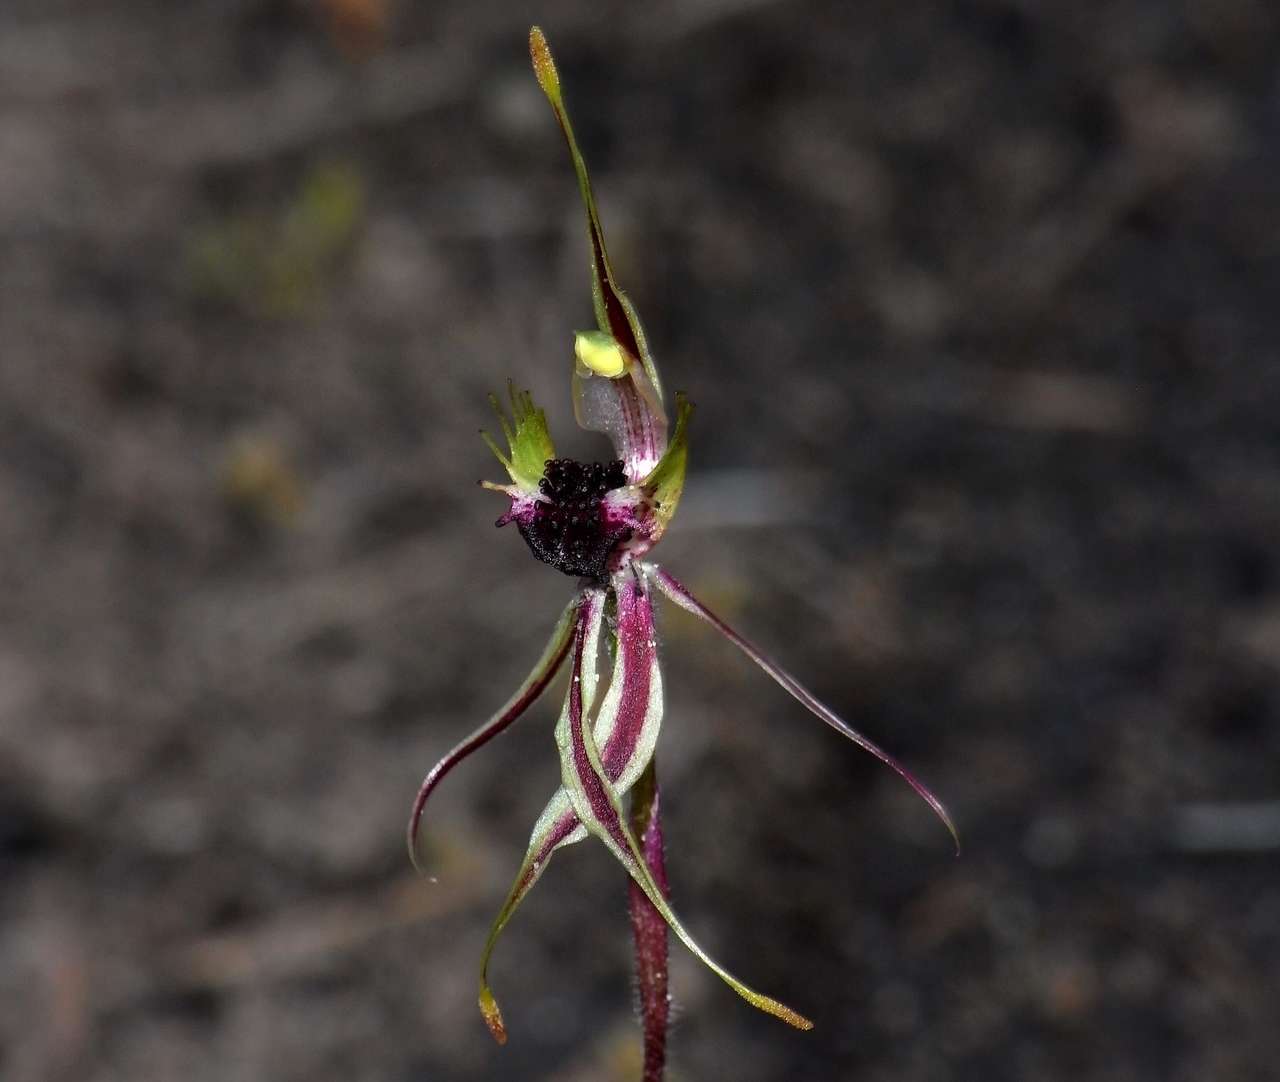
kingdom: Plantae
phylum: Tracheophyta
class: Liliopsida
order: Asparagales
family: Orchidaceae
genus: Caladenia
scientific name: Caladenia verrucosa
